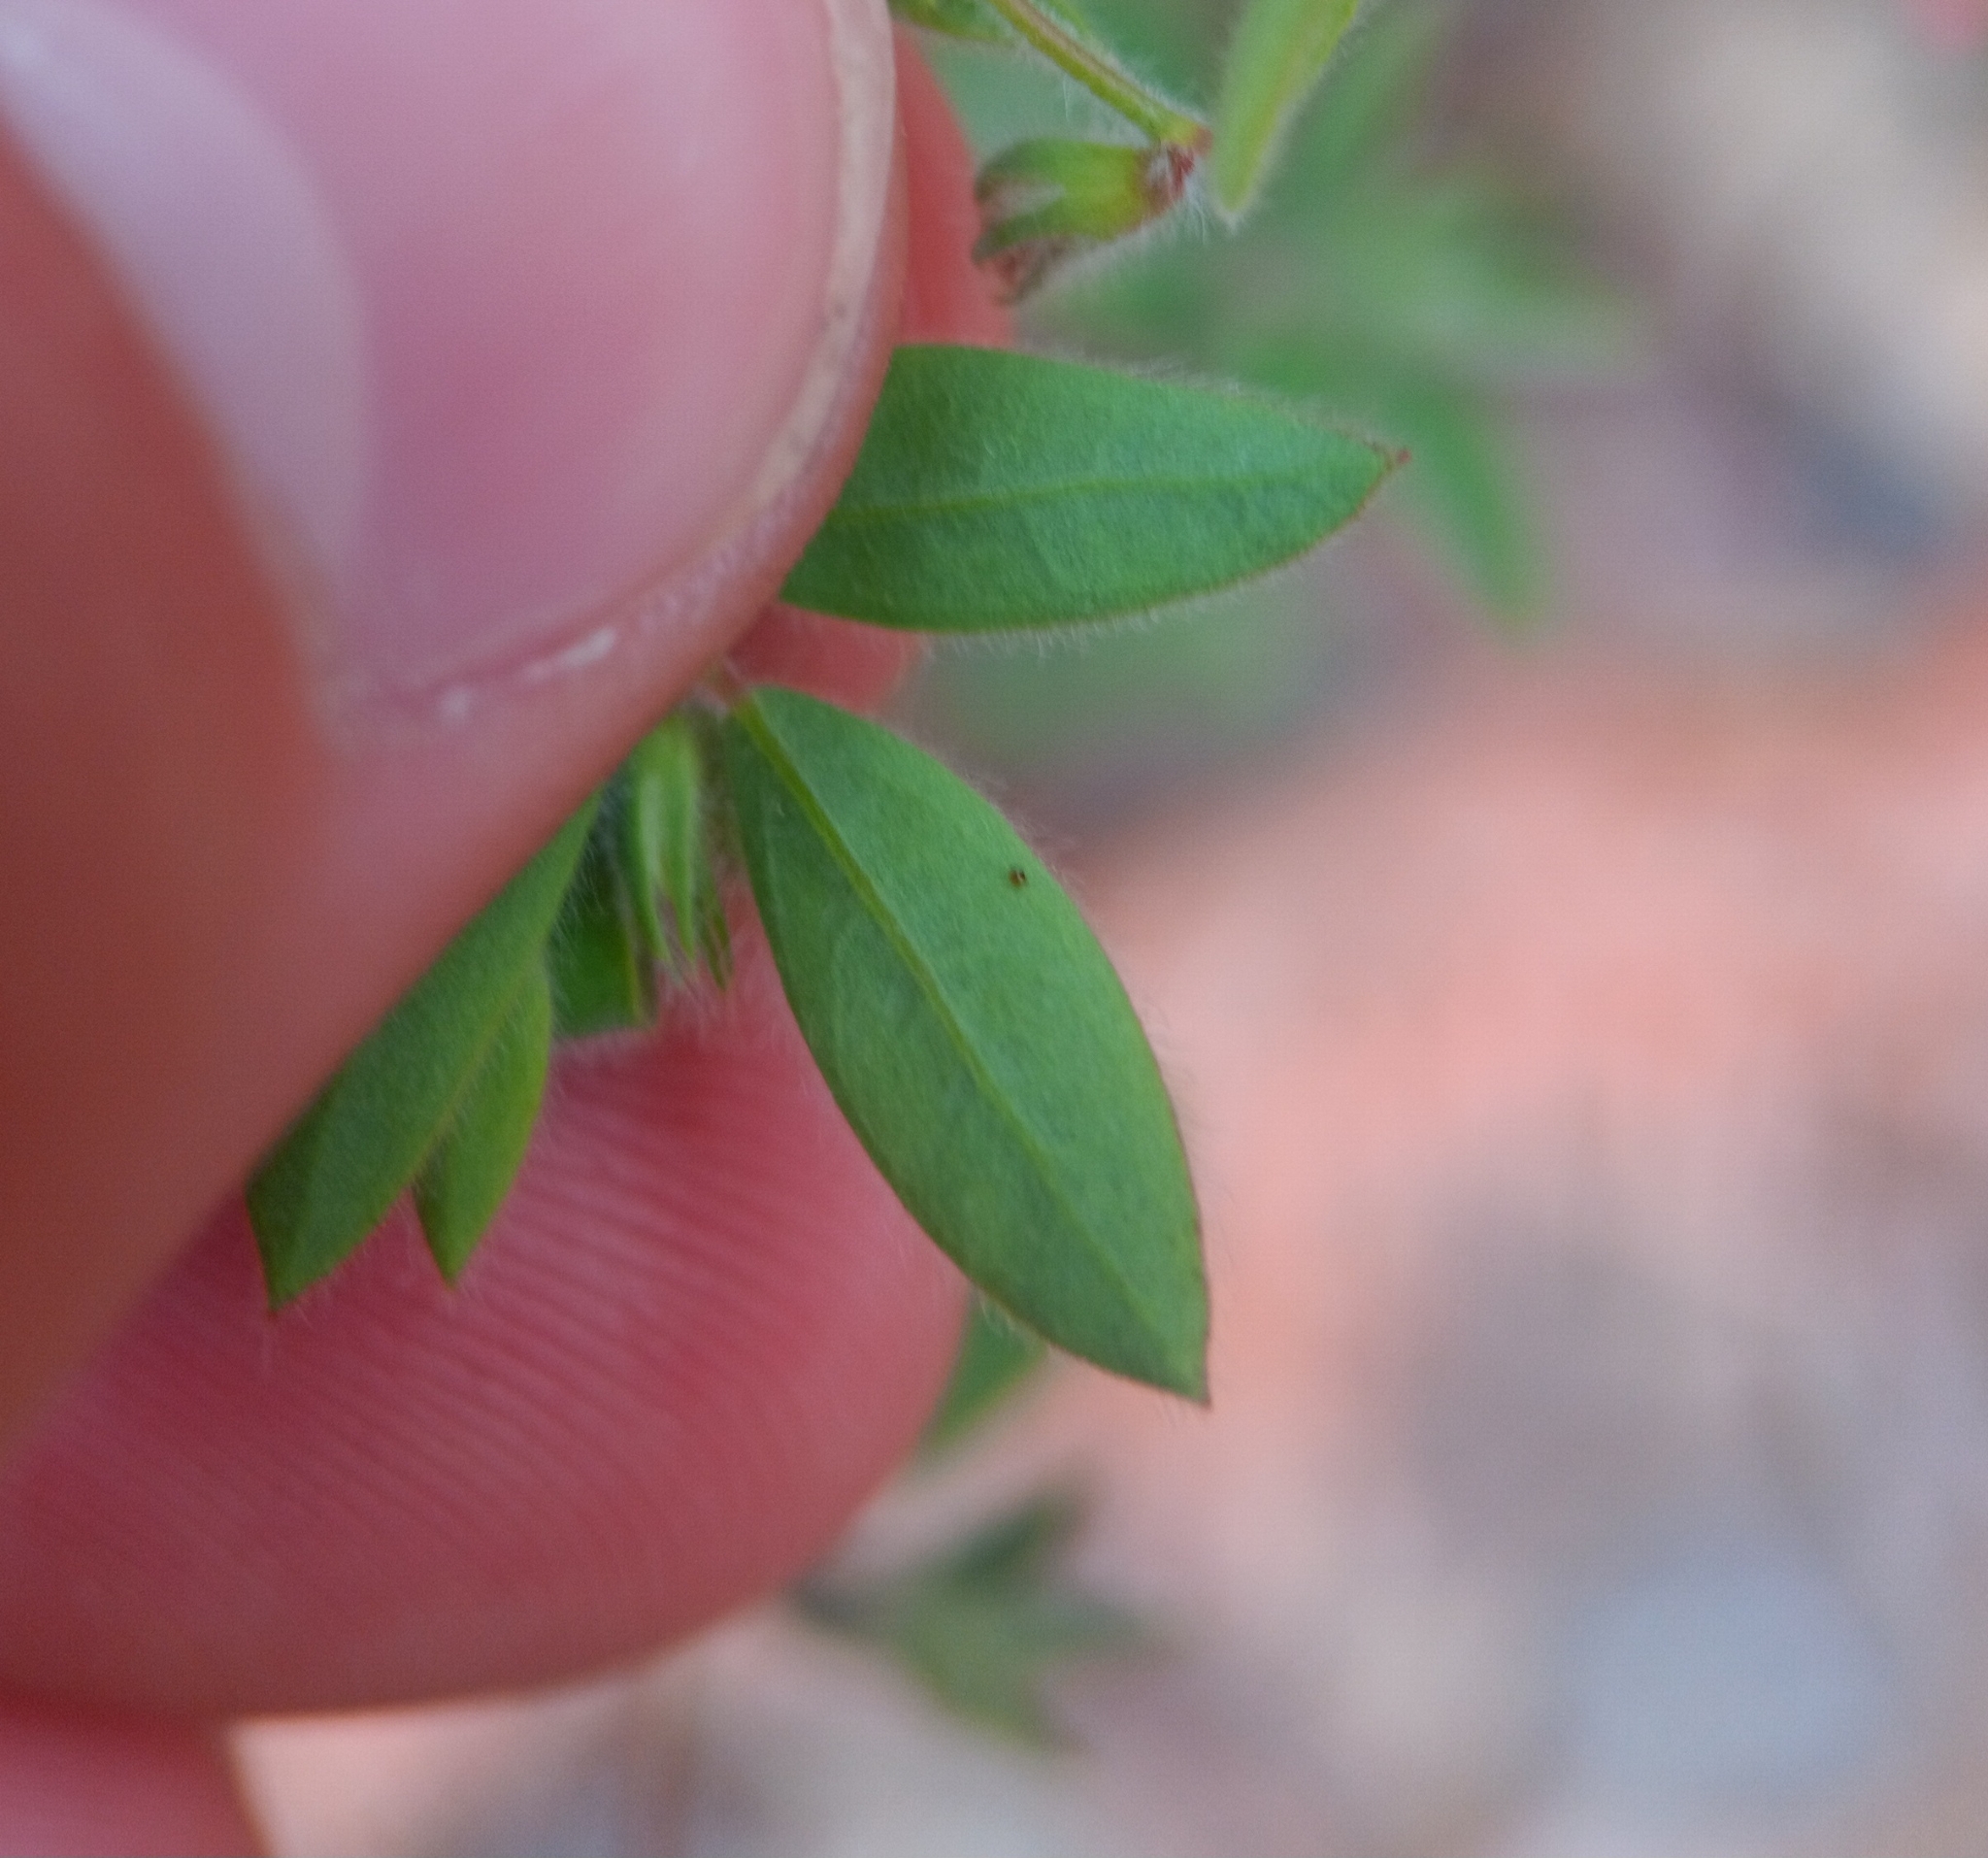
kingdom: Plantae
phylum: Tracheophyta
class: Magnoliopsida
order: Fabales
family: Fabaceae
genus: Acmispon
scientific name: Acmispon americanus
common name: American bird's-foot trefoil
